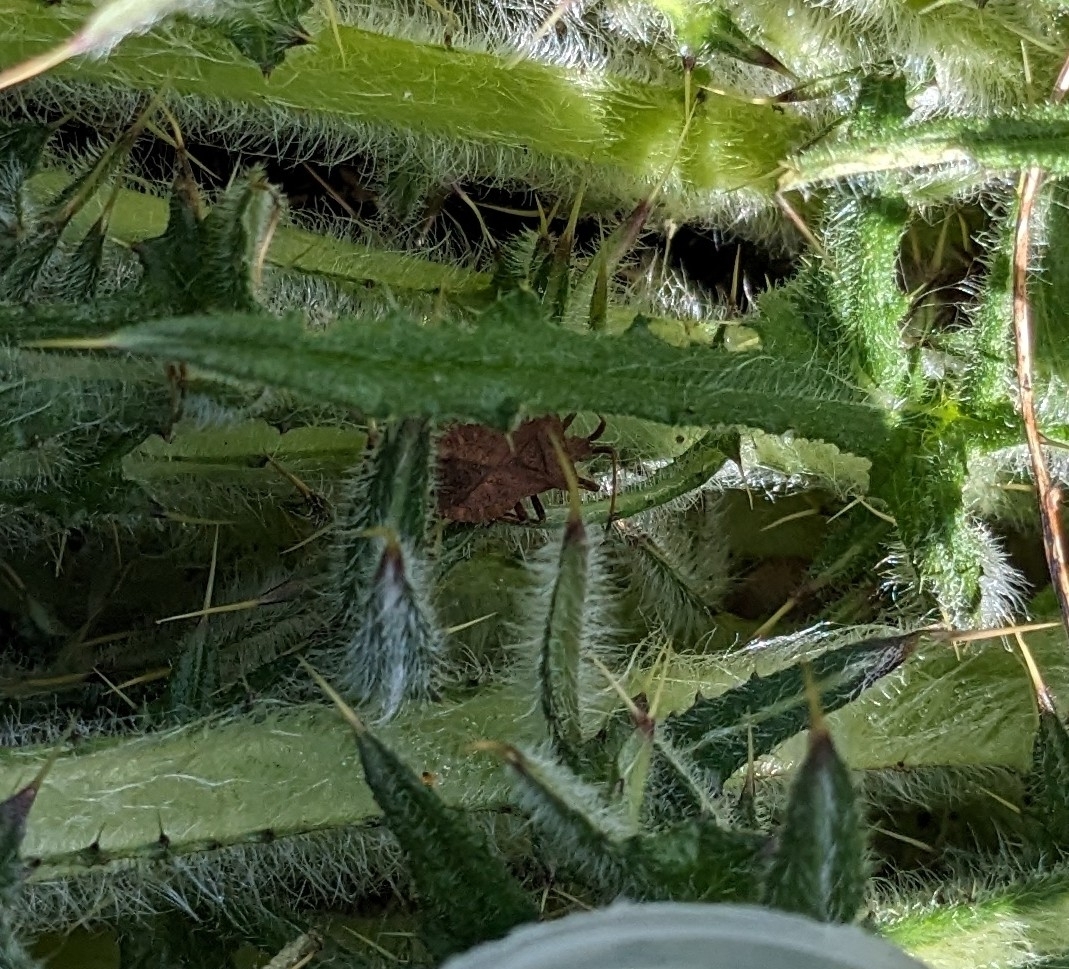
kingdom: Animalia
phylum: Arthropoda
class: Insecta
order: Hemiptera
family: Coreidae
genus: Coreus
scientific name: Coreus marginatus
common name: Dock bug
